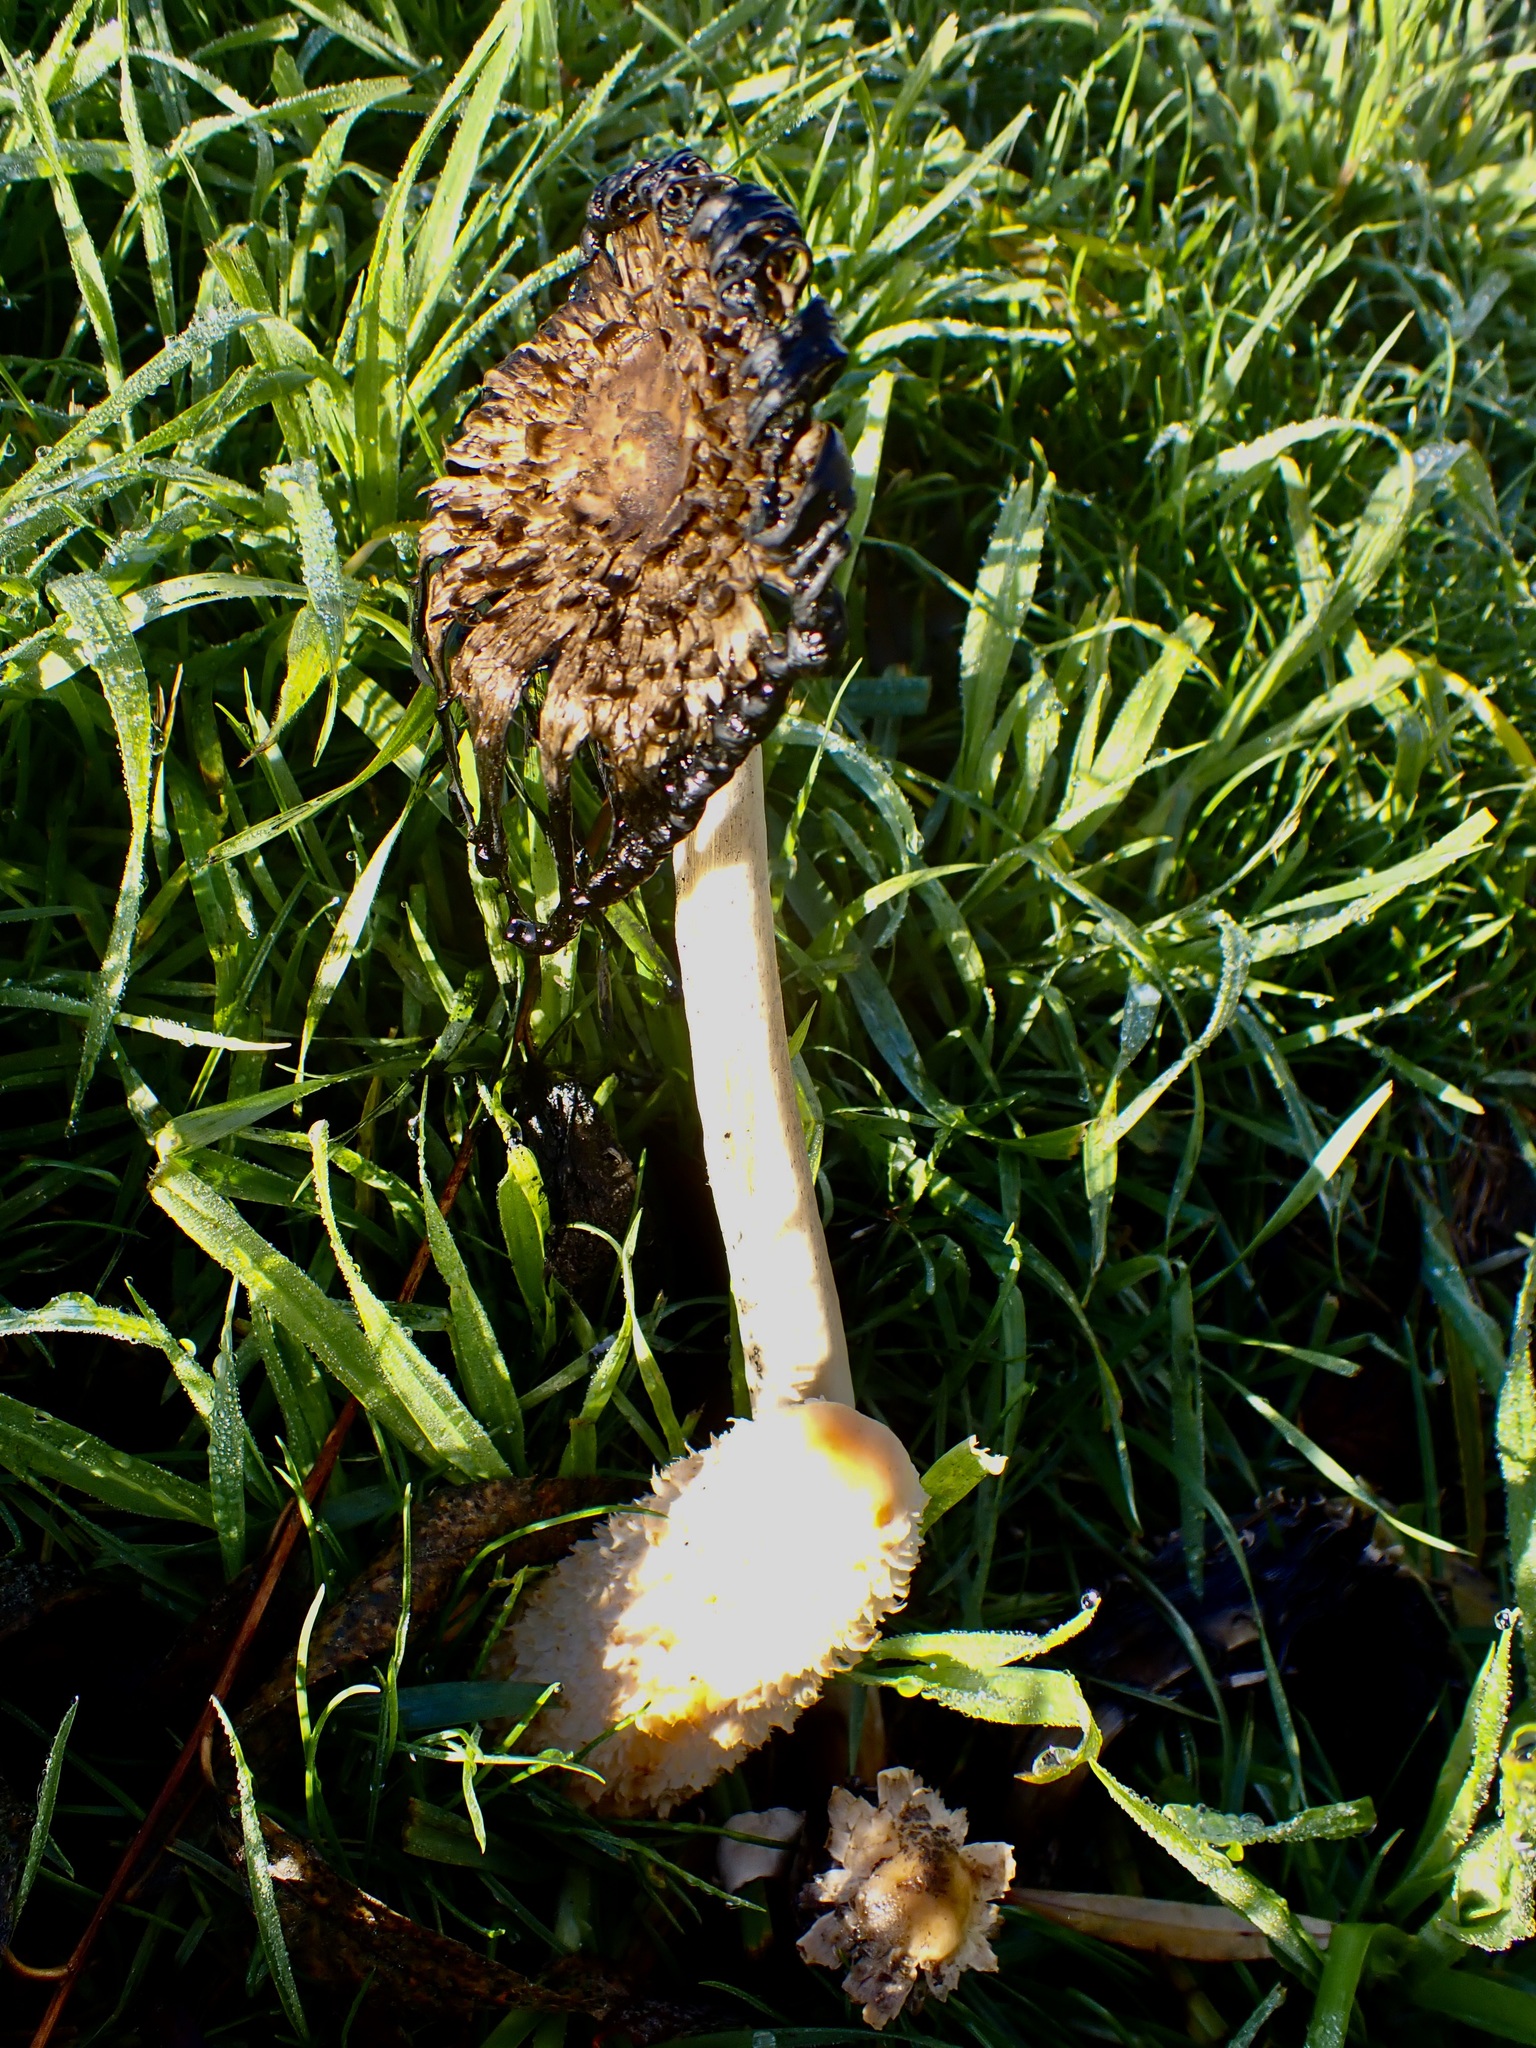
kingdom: Fungi
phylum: Basidiomycota
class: Agaricomycetes
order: Agaricales
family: Agaricaceae
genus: Coprinus
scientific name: Coprinus comatus
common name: Lawyer's wig
